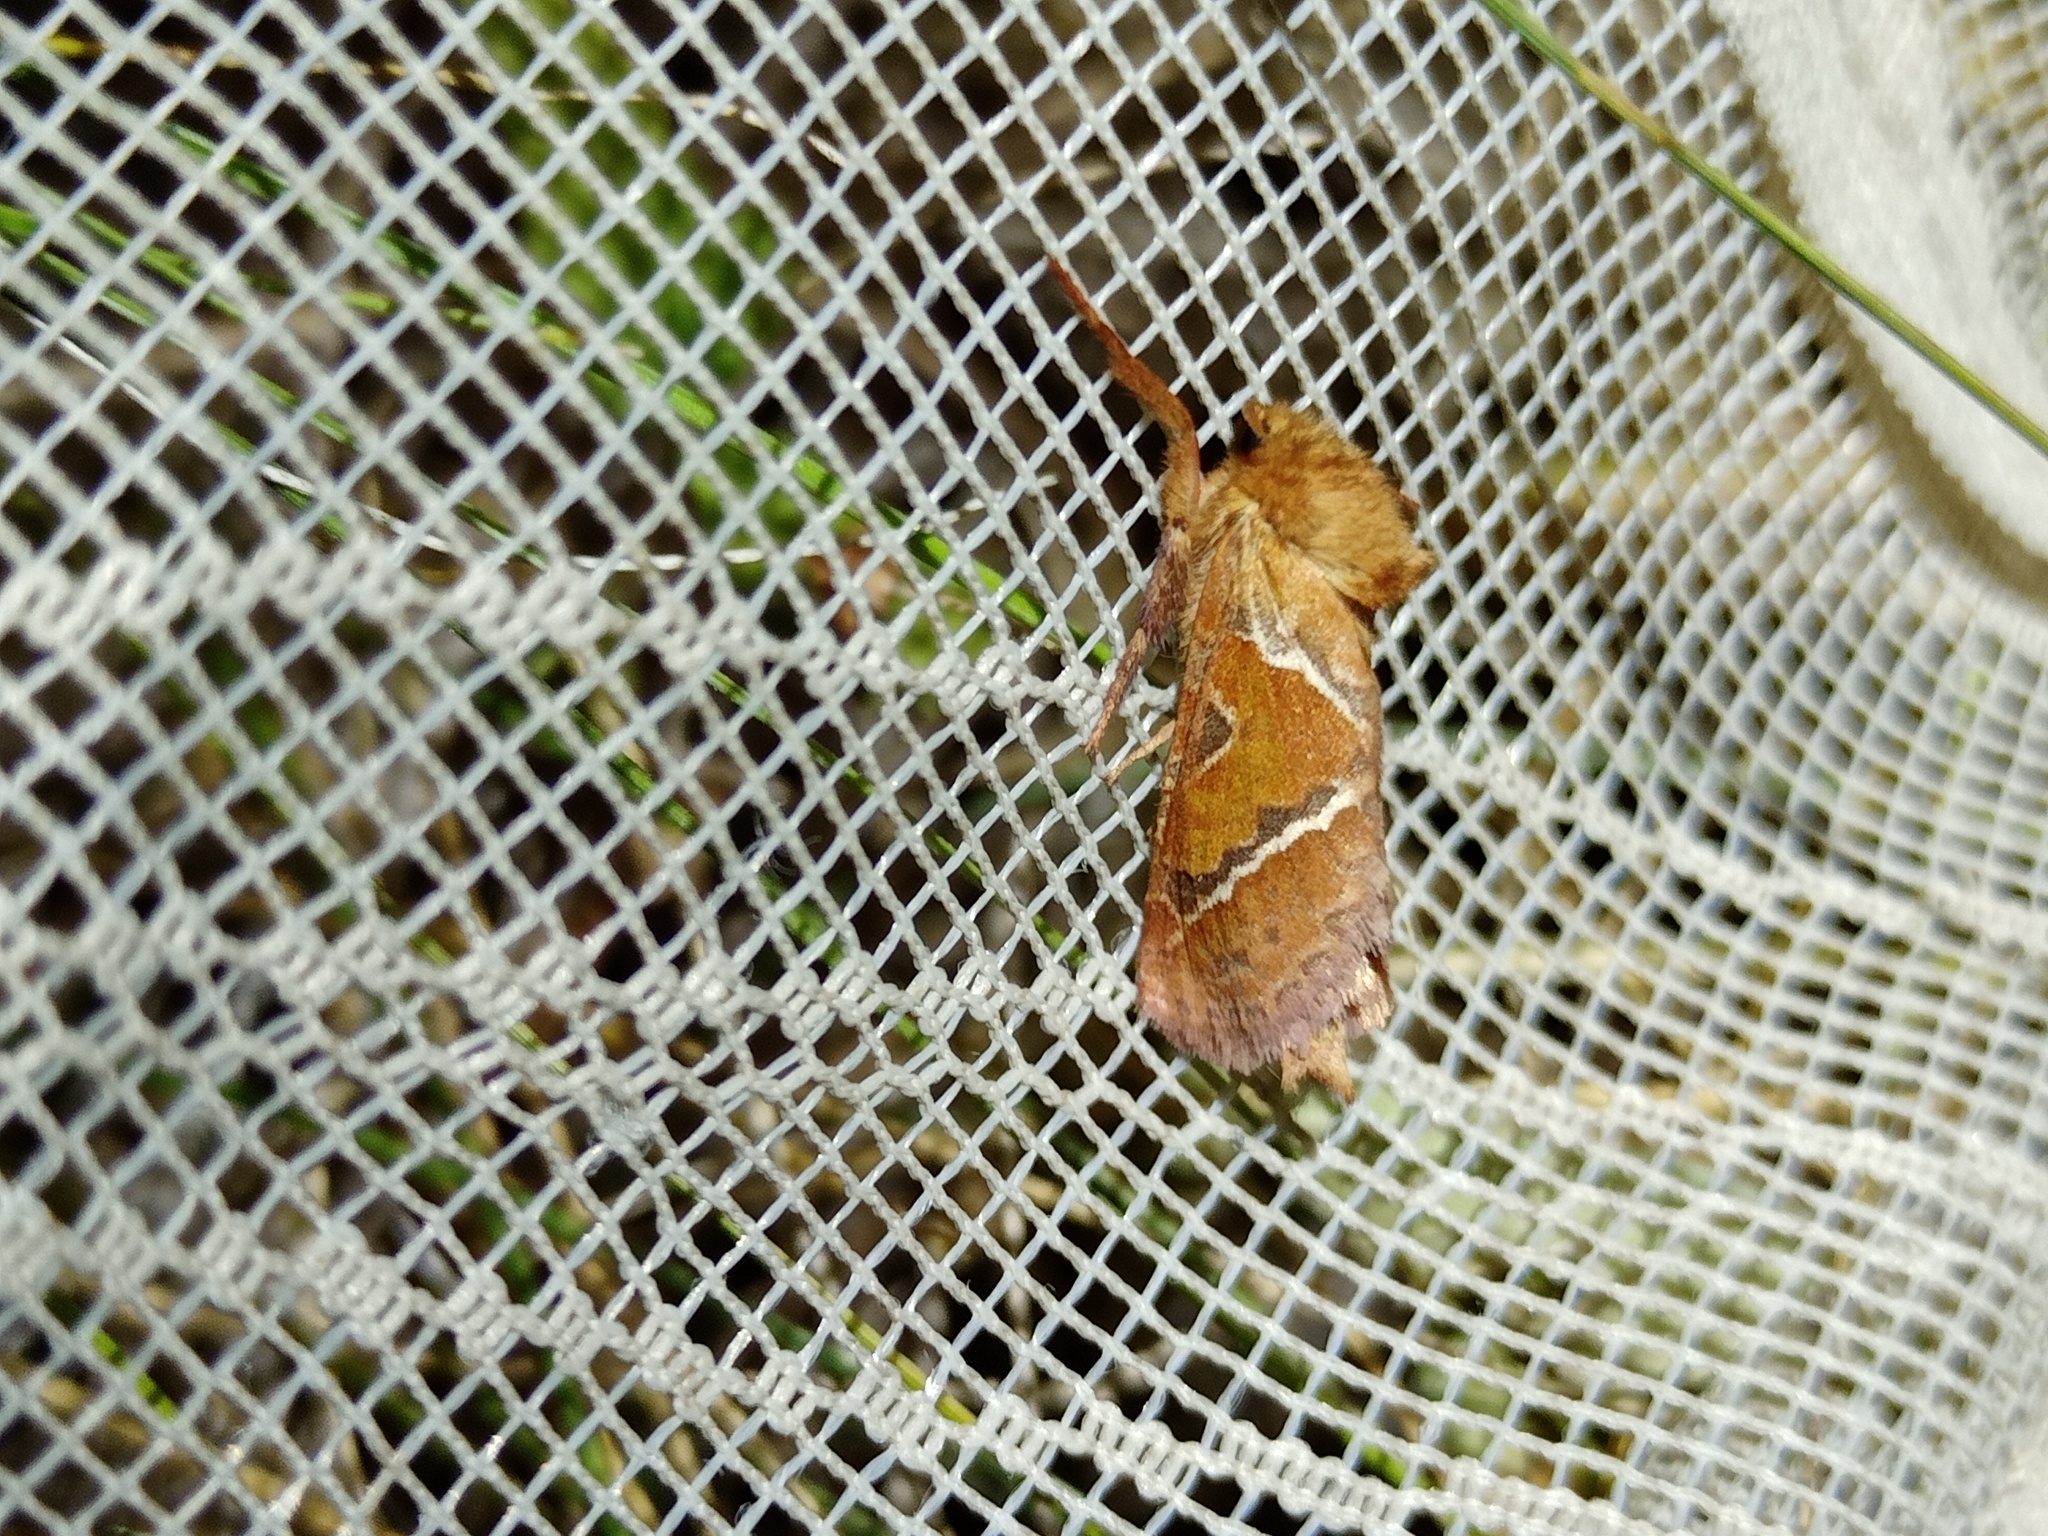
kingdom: Animalia
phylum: Arthropoda
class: Insecta
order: Lepidoptera
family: Hepialidae
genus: Triodia
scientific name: Triodia sylvina
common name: Orange swift
